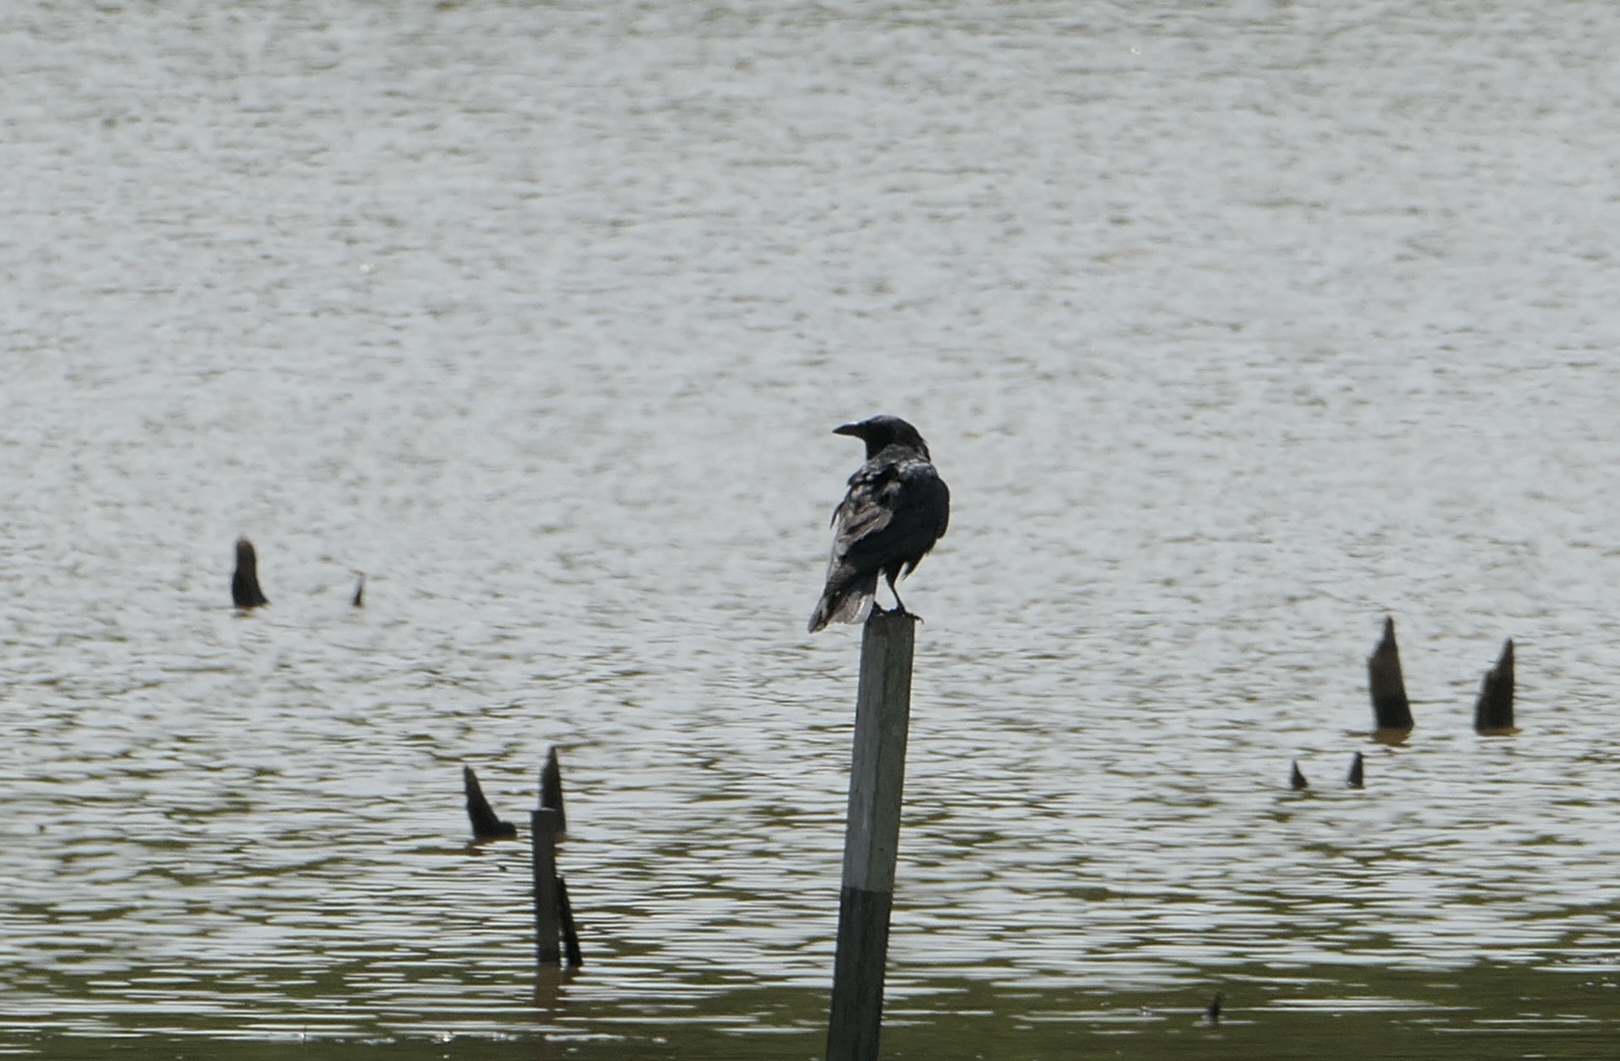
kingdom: Animalia
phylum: Chordata
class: Aves
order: Passeriformes
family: Corvidae
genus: Corvus
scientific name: Corvus ossifragus
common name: Fish crow
